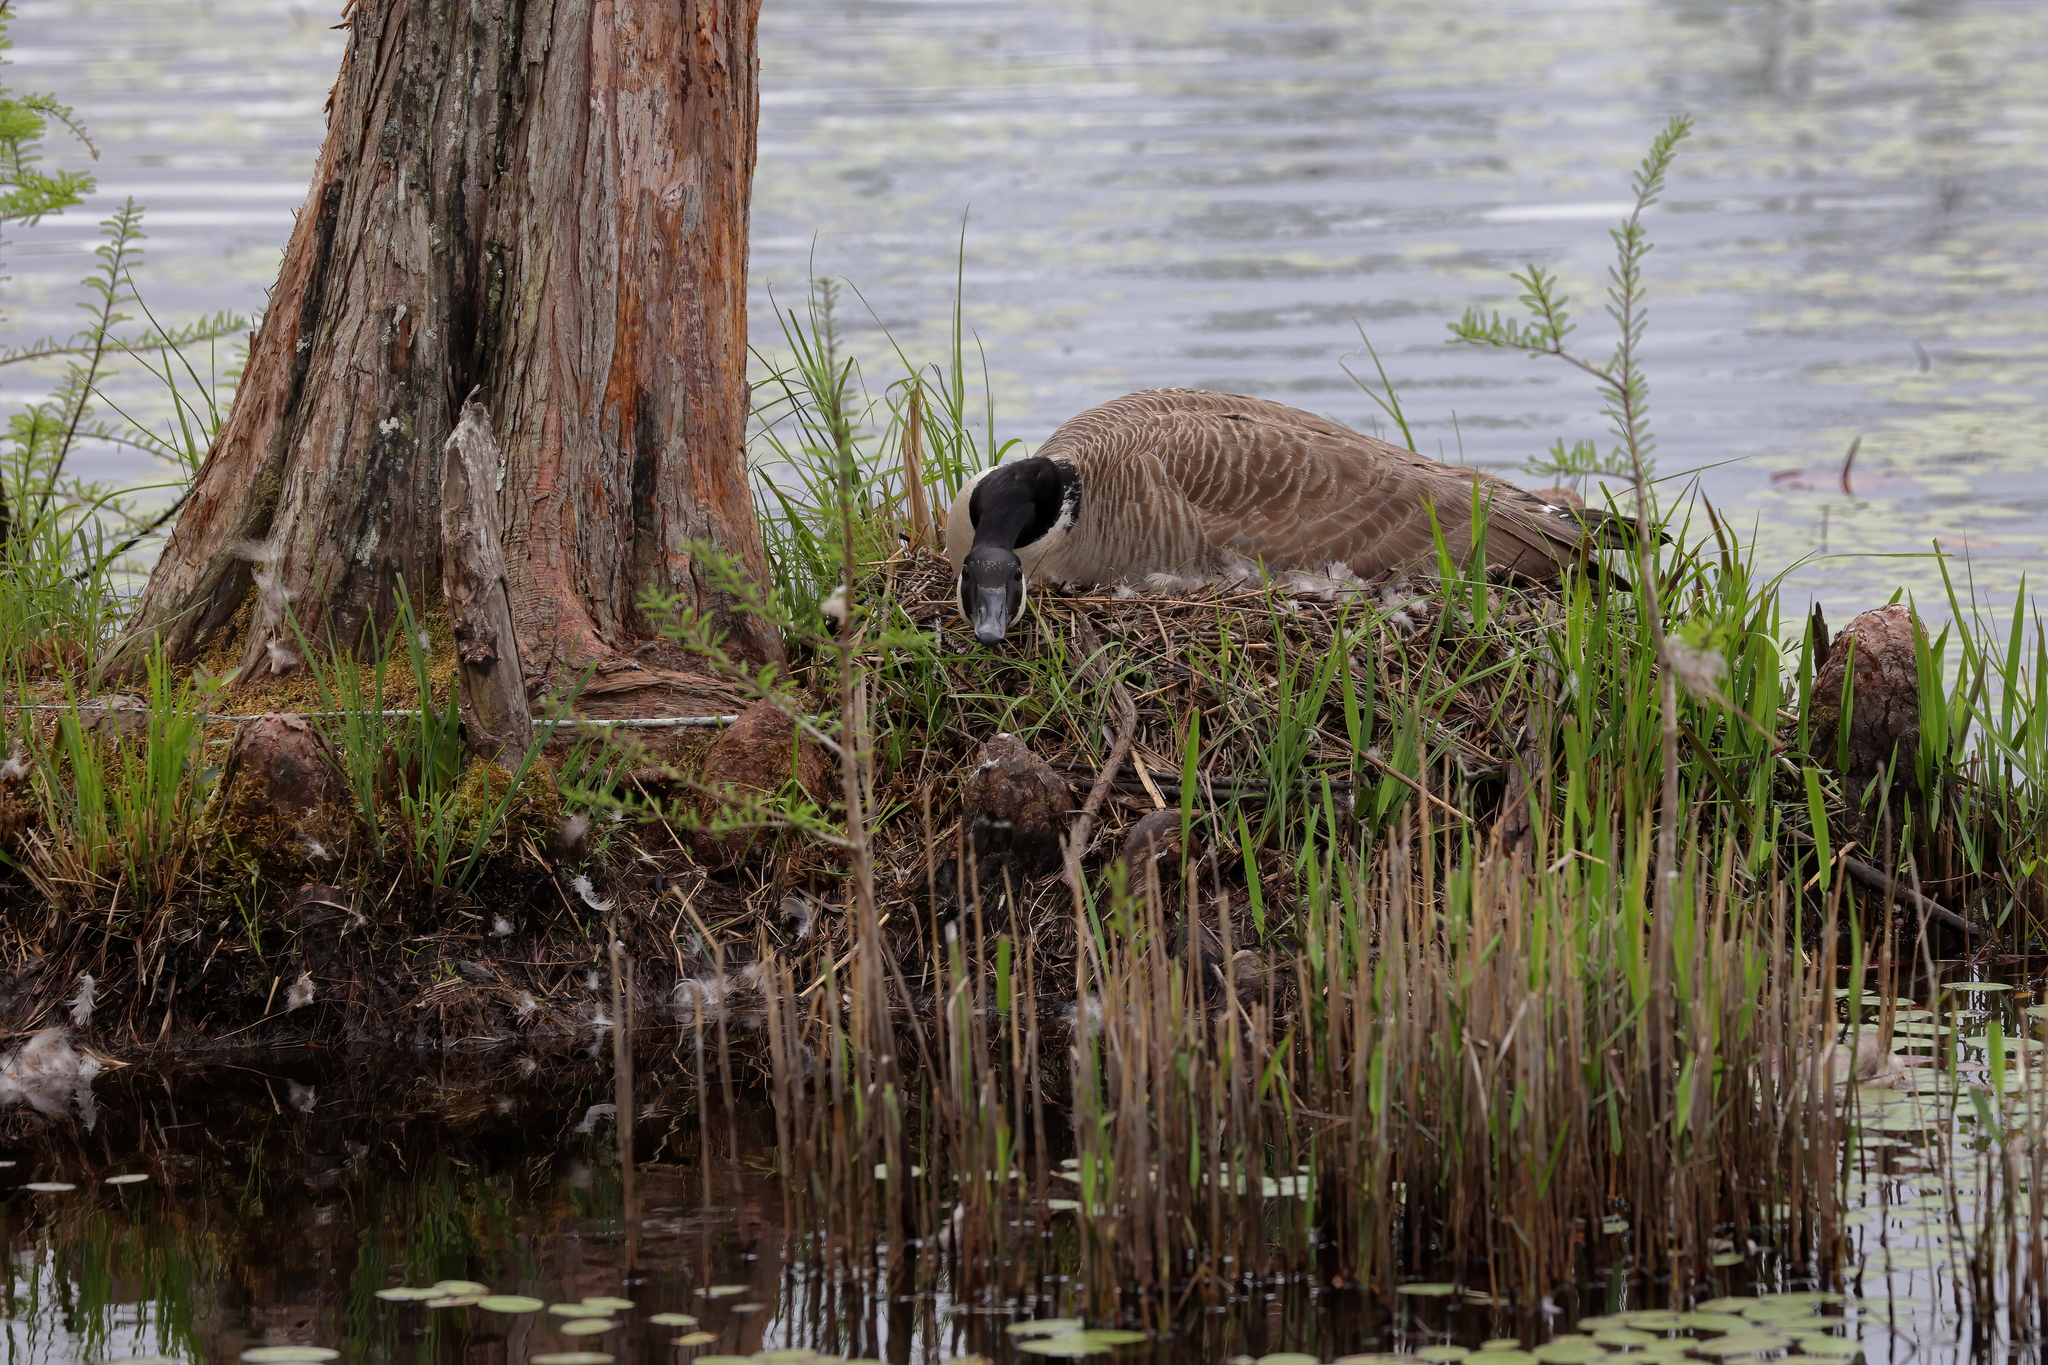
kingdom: Animalia
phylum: Chordata
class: Aves
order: Anseriformes
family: Anatidae
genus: Branta
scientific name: Branta canadensis
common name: Canada goose
